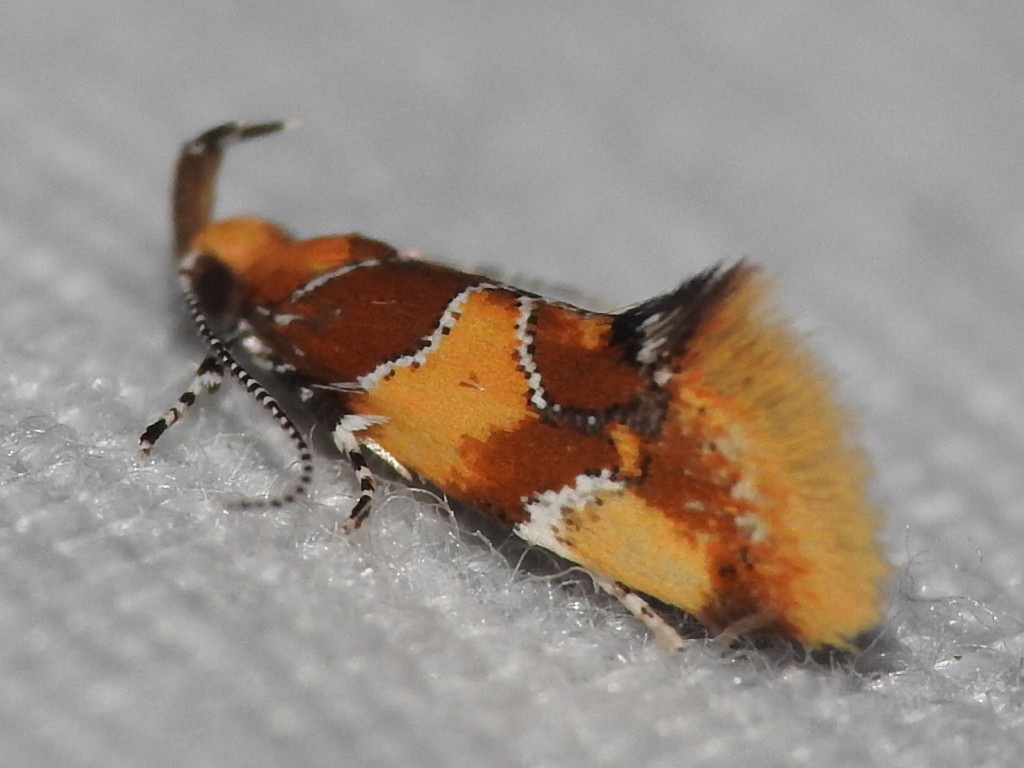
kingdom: Animalia
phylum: Arthropoda
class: Insecta
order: Lepidoptera
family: Oecophoridae
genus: Callima
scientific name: Callima argenticinctella
